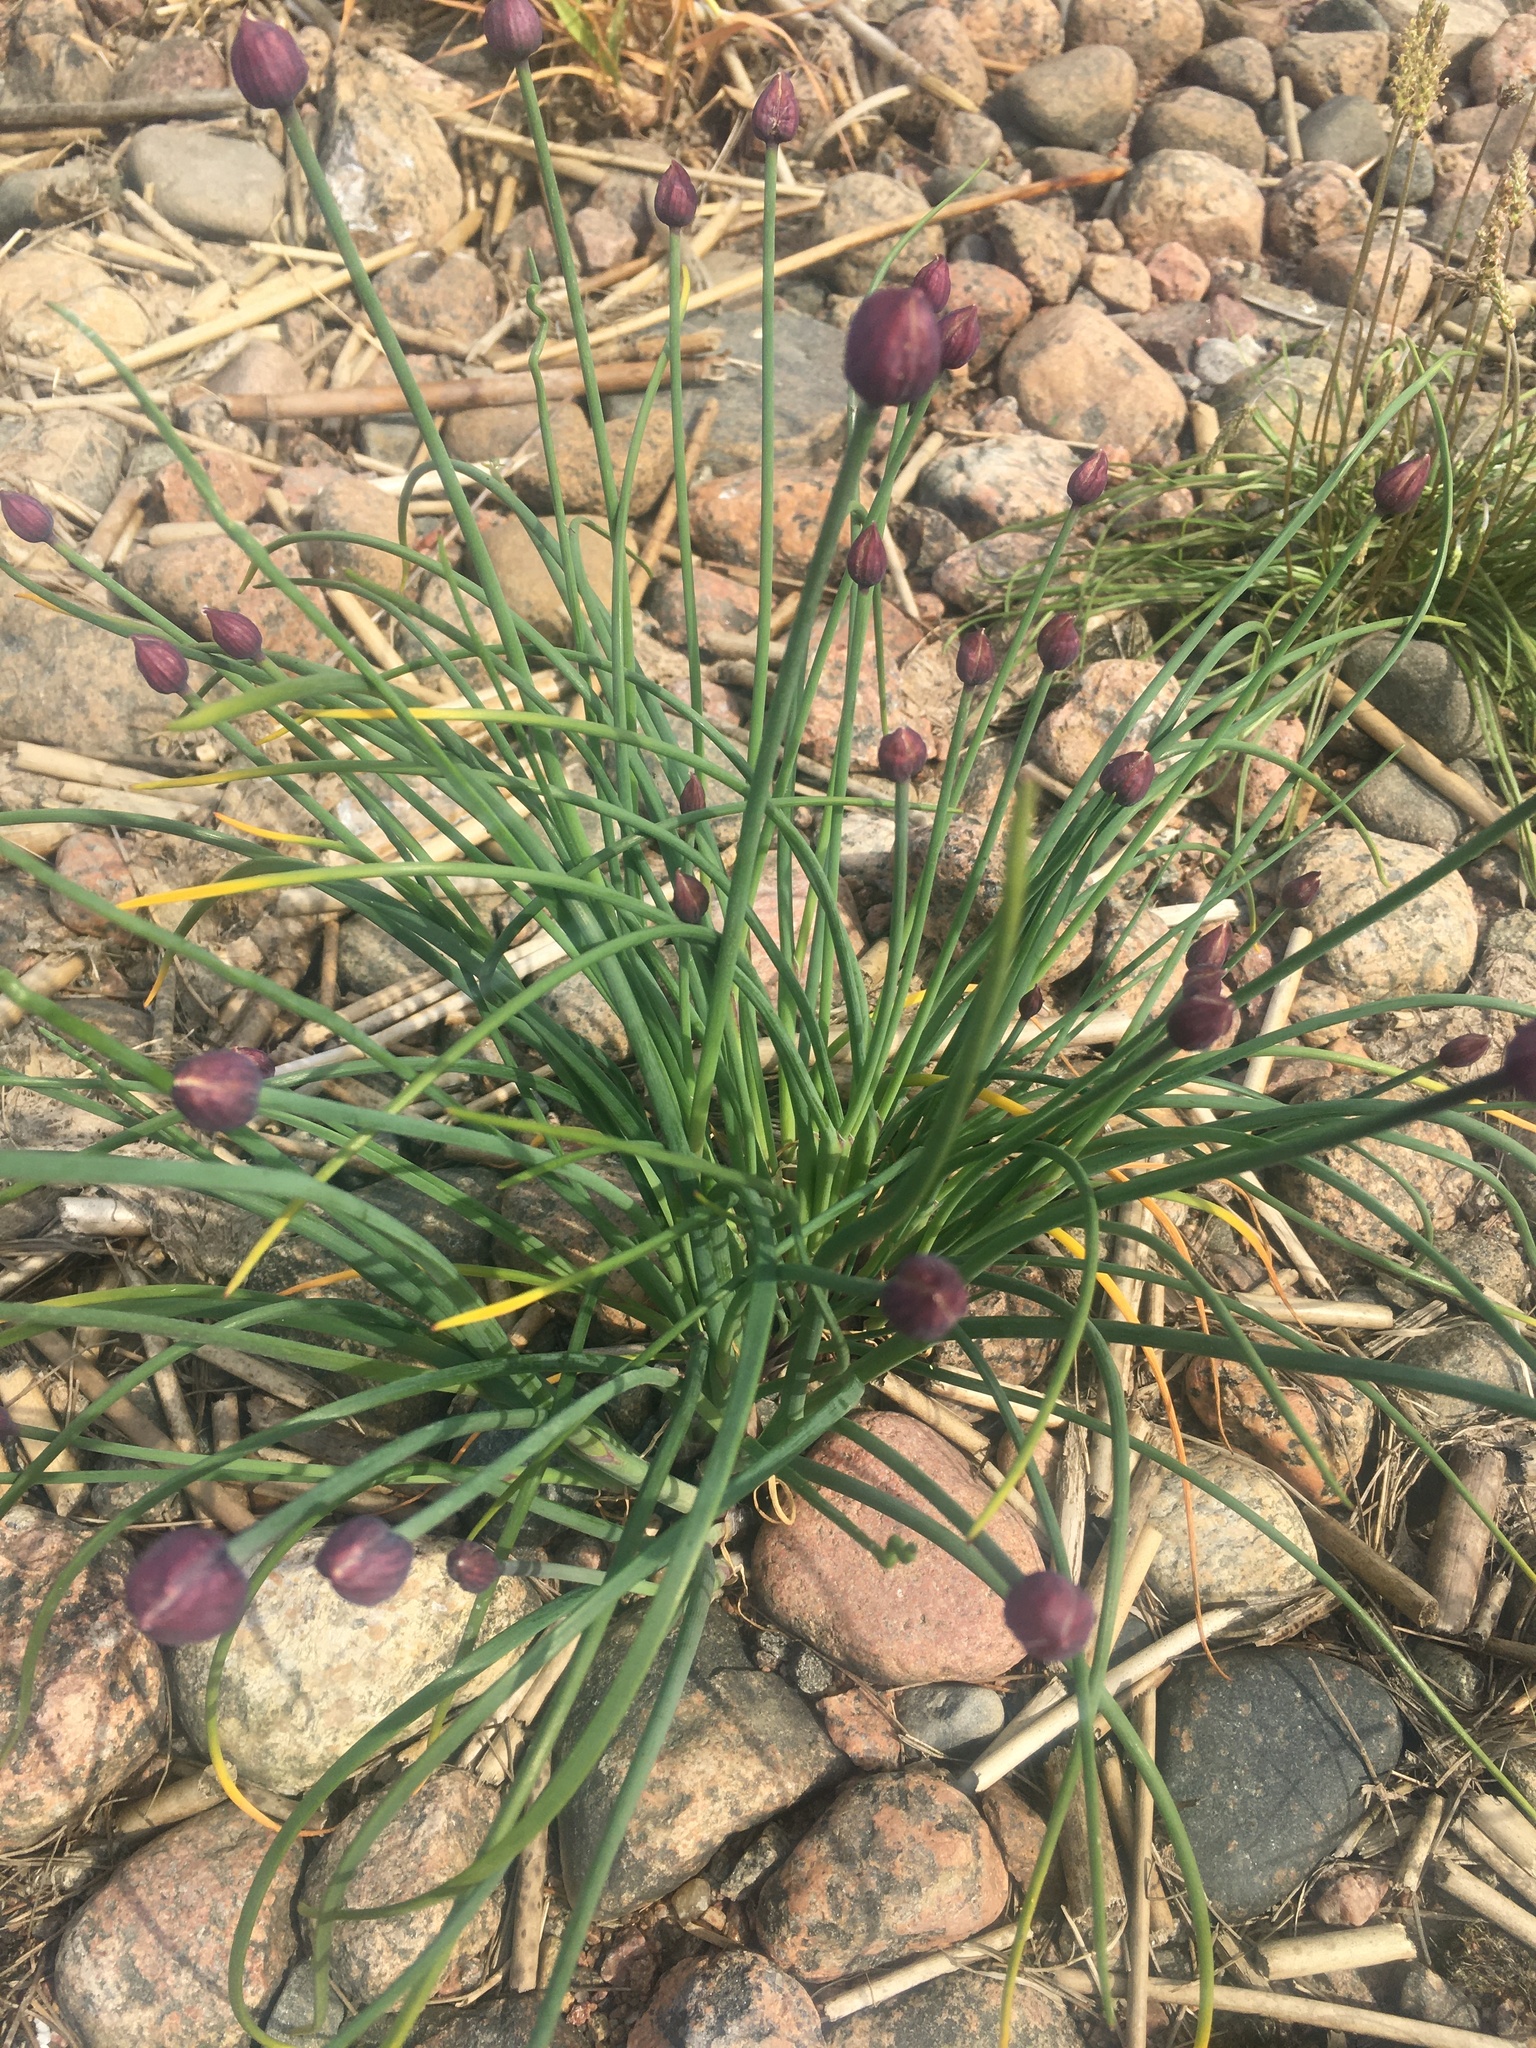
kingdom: Plantae
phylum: Tracheophyta
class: Liliopsida
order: Asparagales
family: Amaryllidaceae
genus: Allium
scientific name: Allium schoenoprasum
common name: Chives
